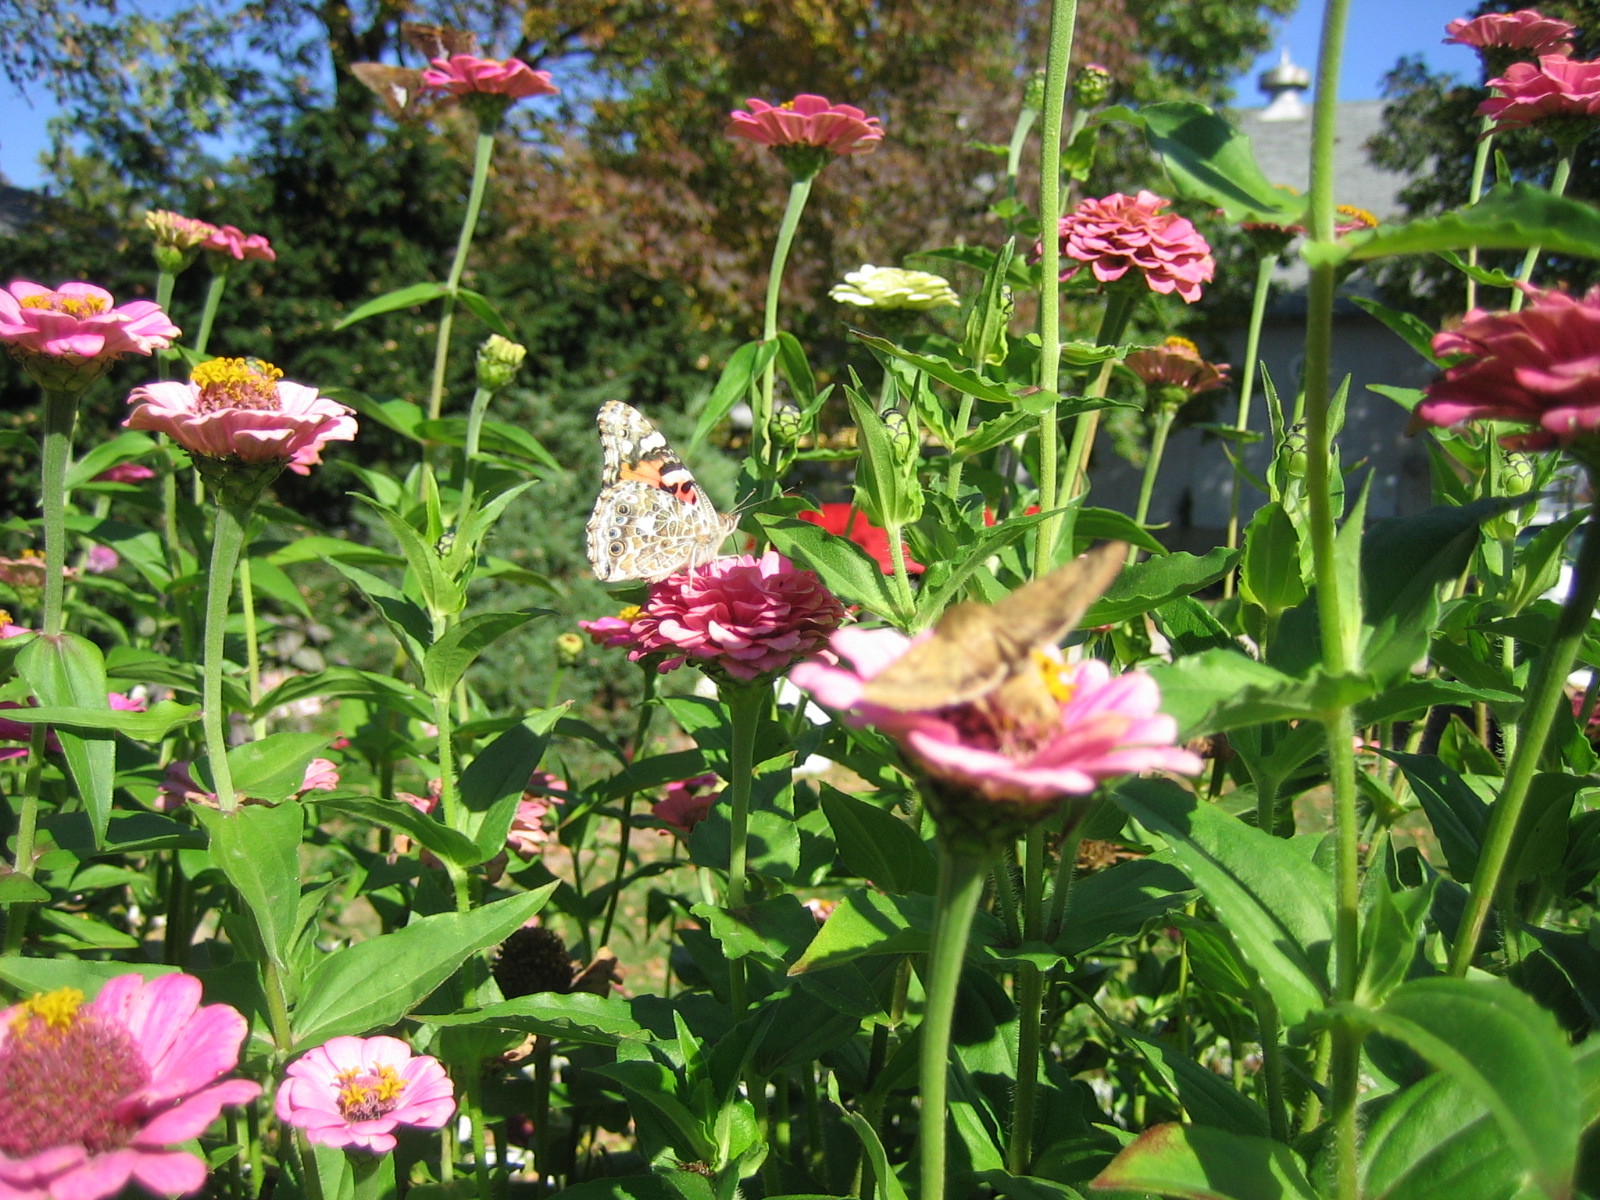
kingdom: Animalia
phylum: Arthropoda
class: Insecta
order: Lepidoptera
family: Nymphalidae
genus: Vanessa
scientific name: Vanessa cardui
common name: Painted lady
